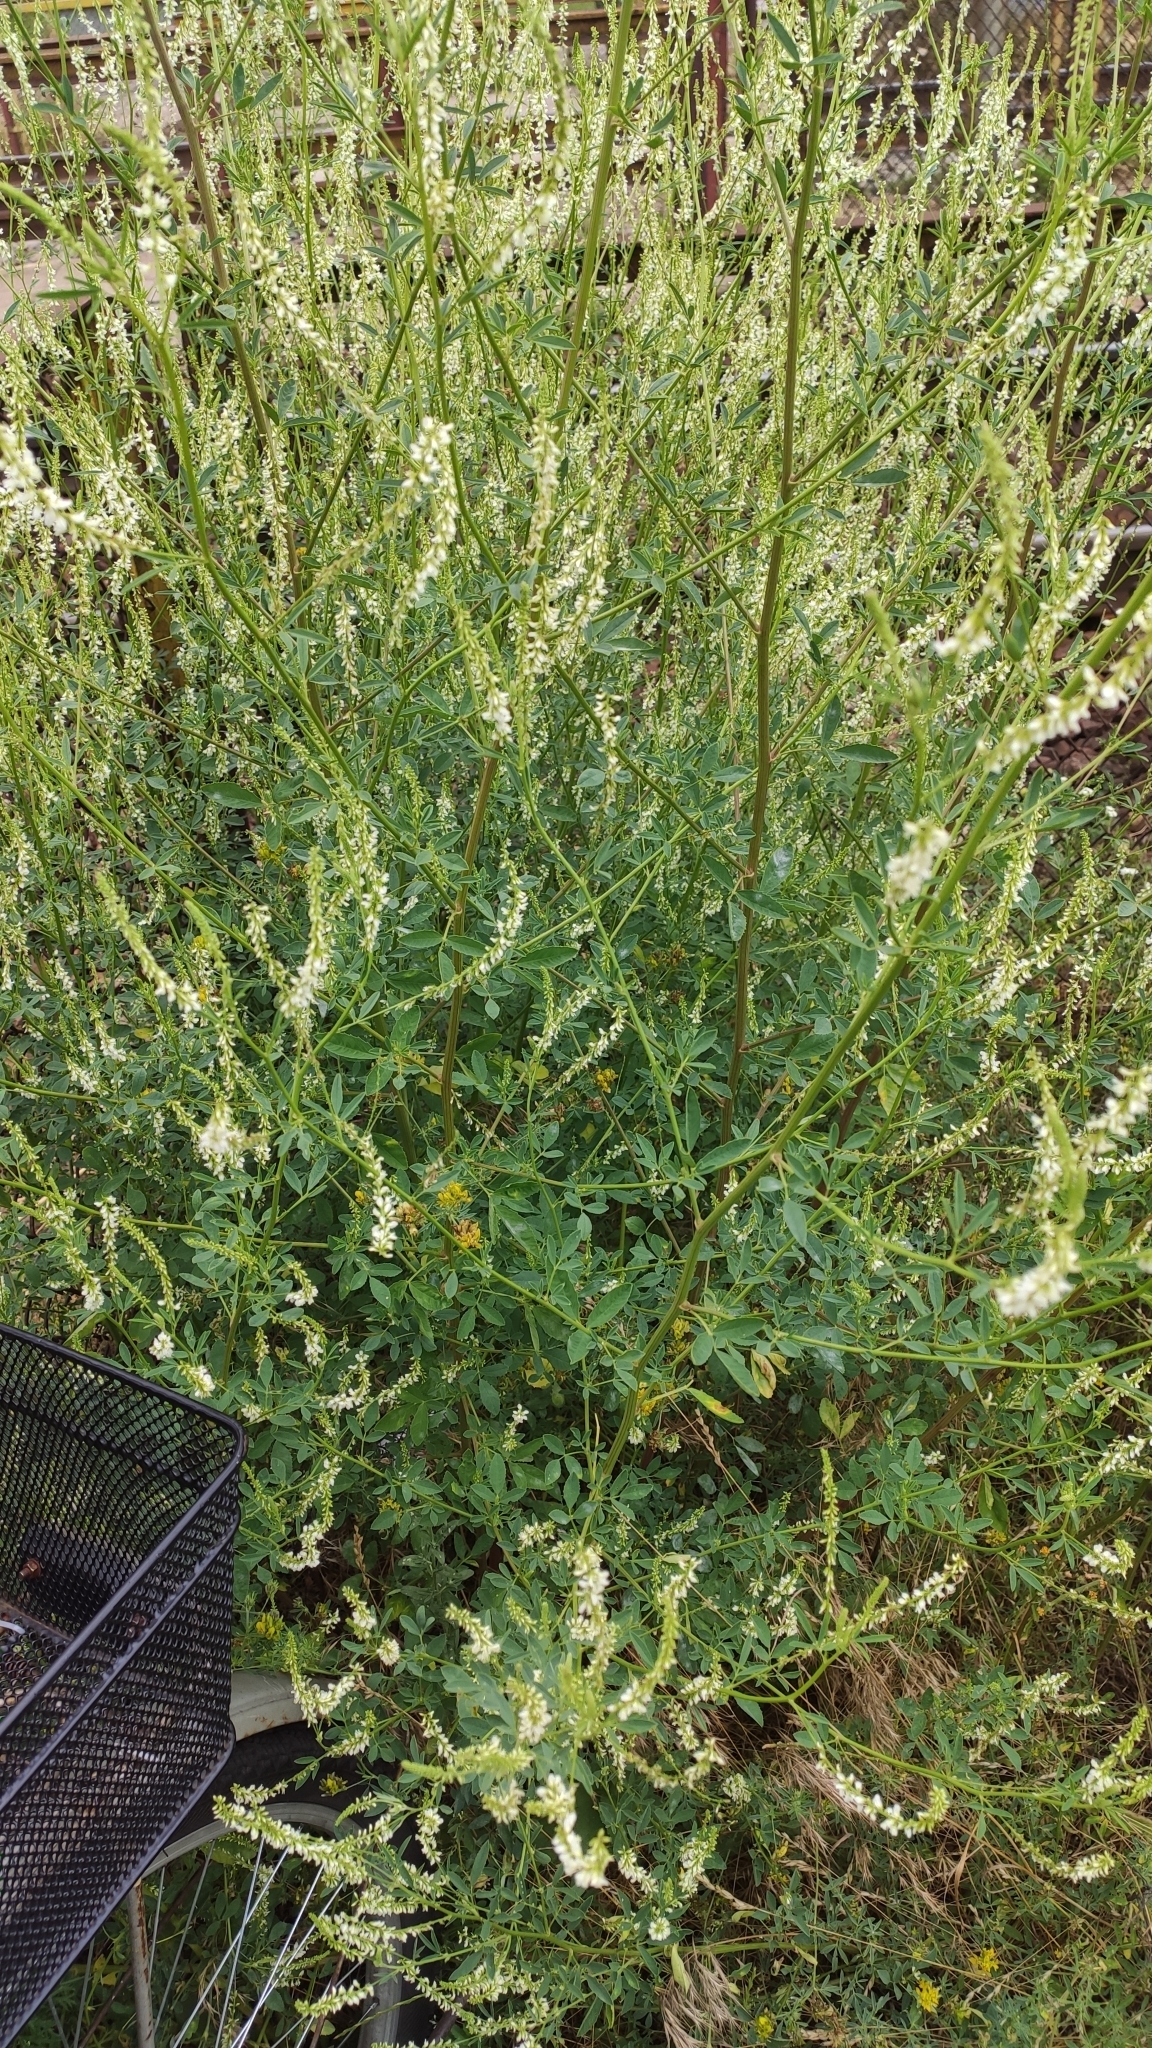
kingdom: Plantae
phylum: Tracheophyta
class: Magnoliopsida
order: Fabales
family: Fabaceae
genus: Melilotus
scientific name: Melilotus albus
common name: White melilot
